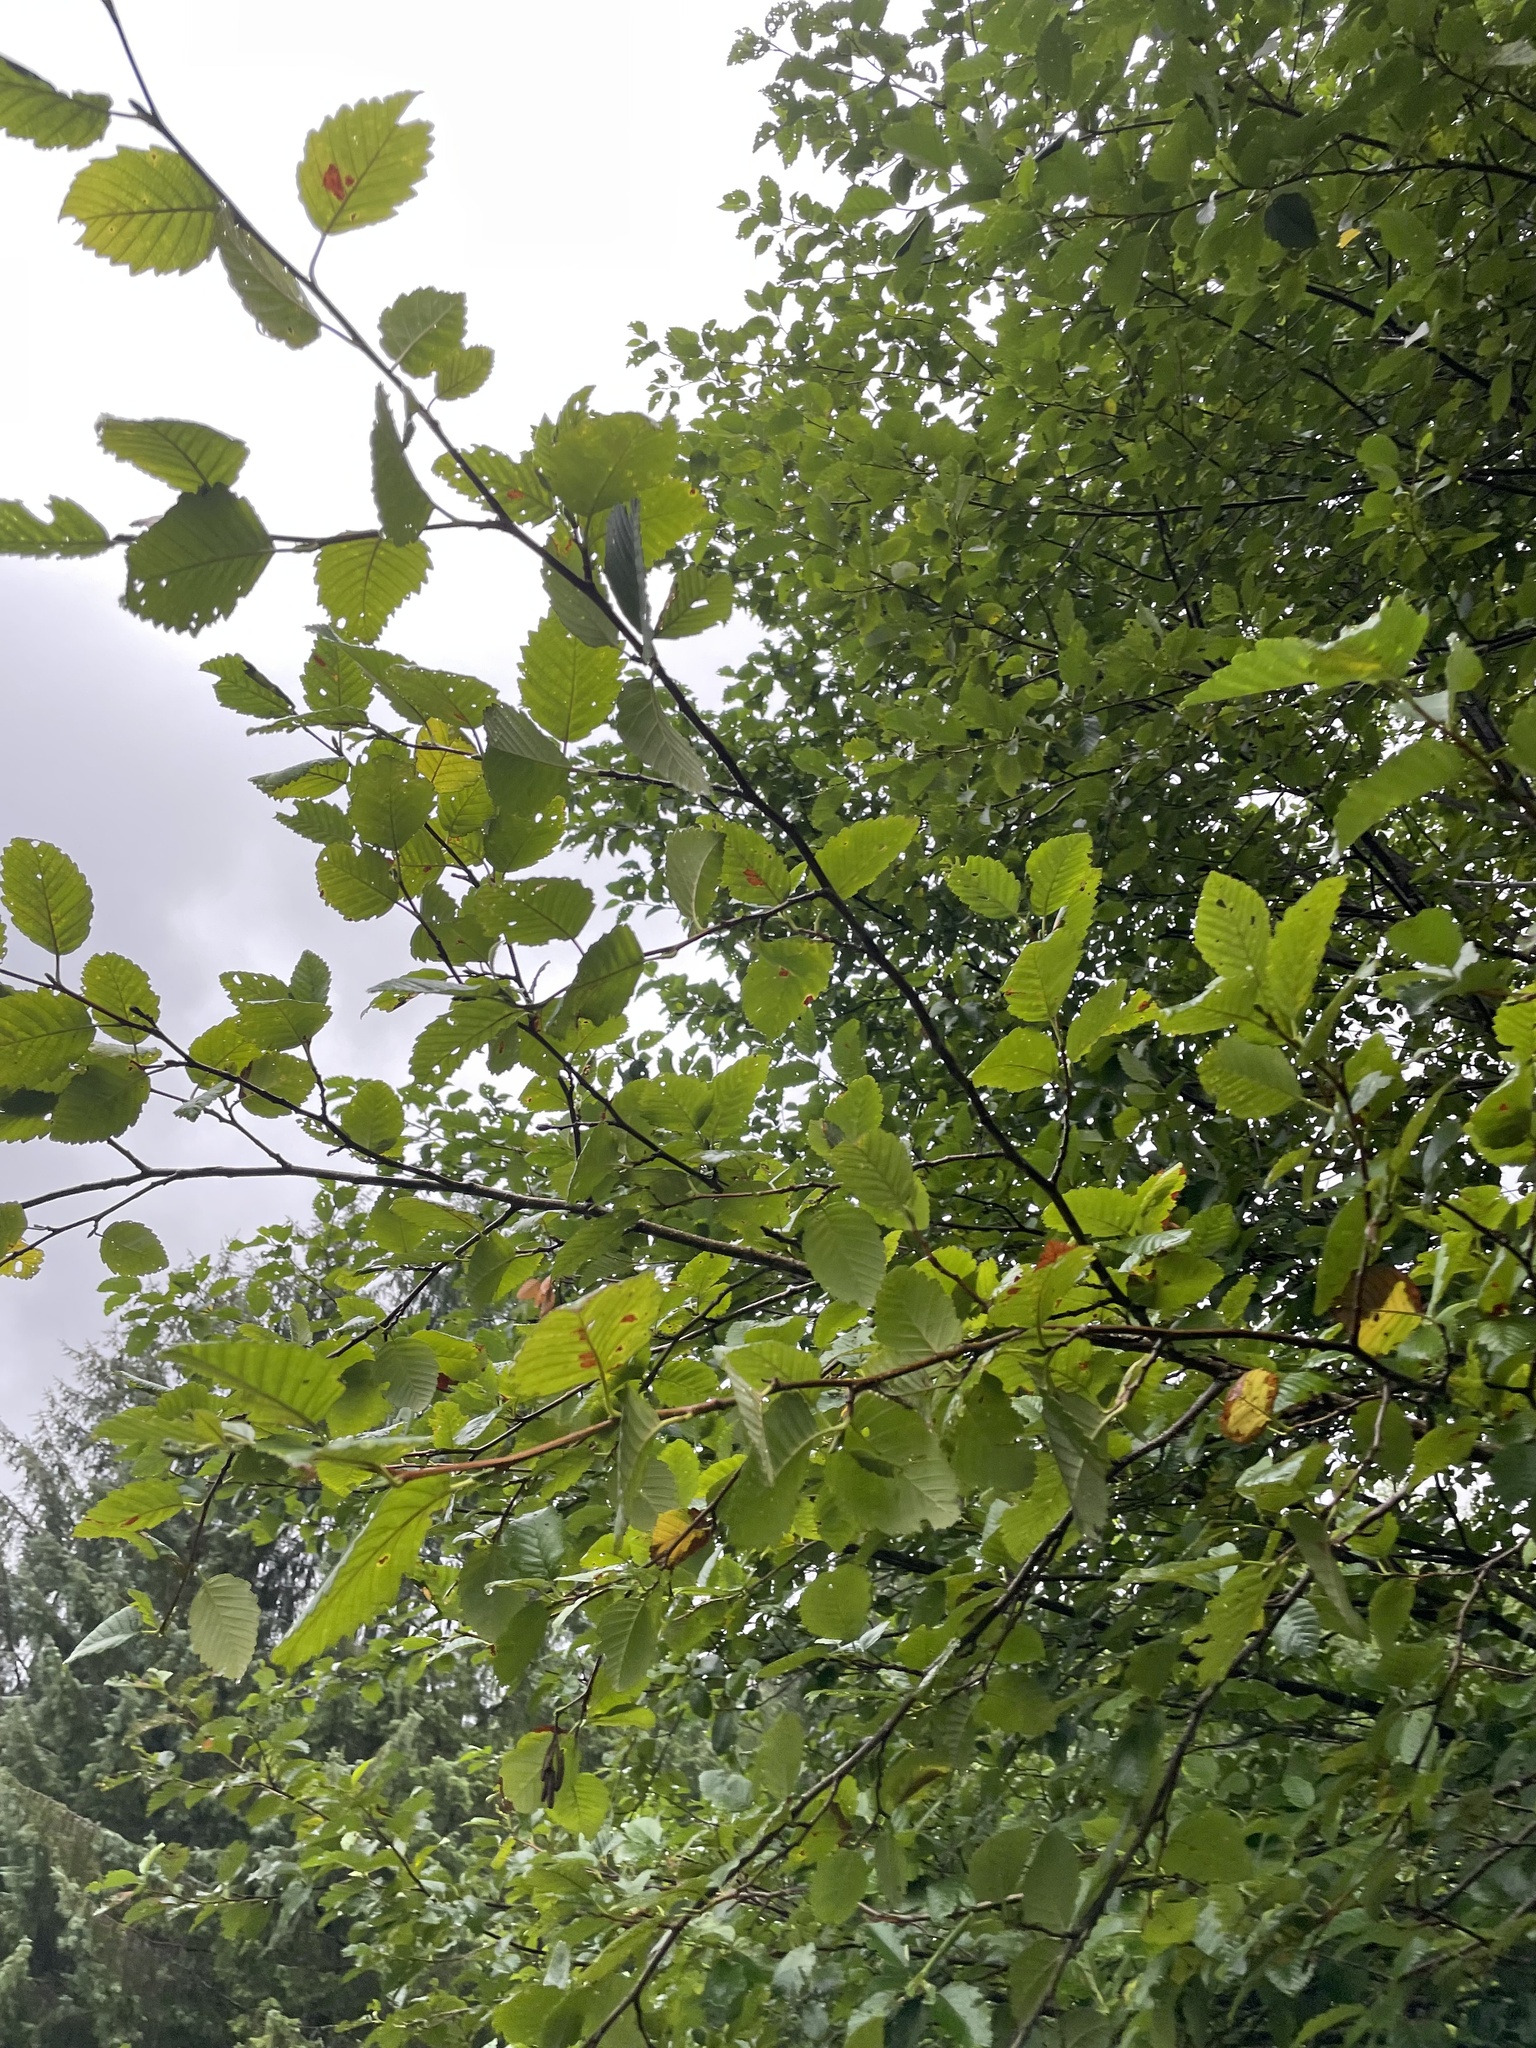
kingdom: Plantae
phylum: Tracheophyta
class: Magnoliopsida
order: Fagales
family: Betulaceae
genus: Alnus
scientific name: Alnus rubra
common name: Red alder
